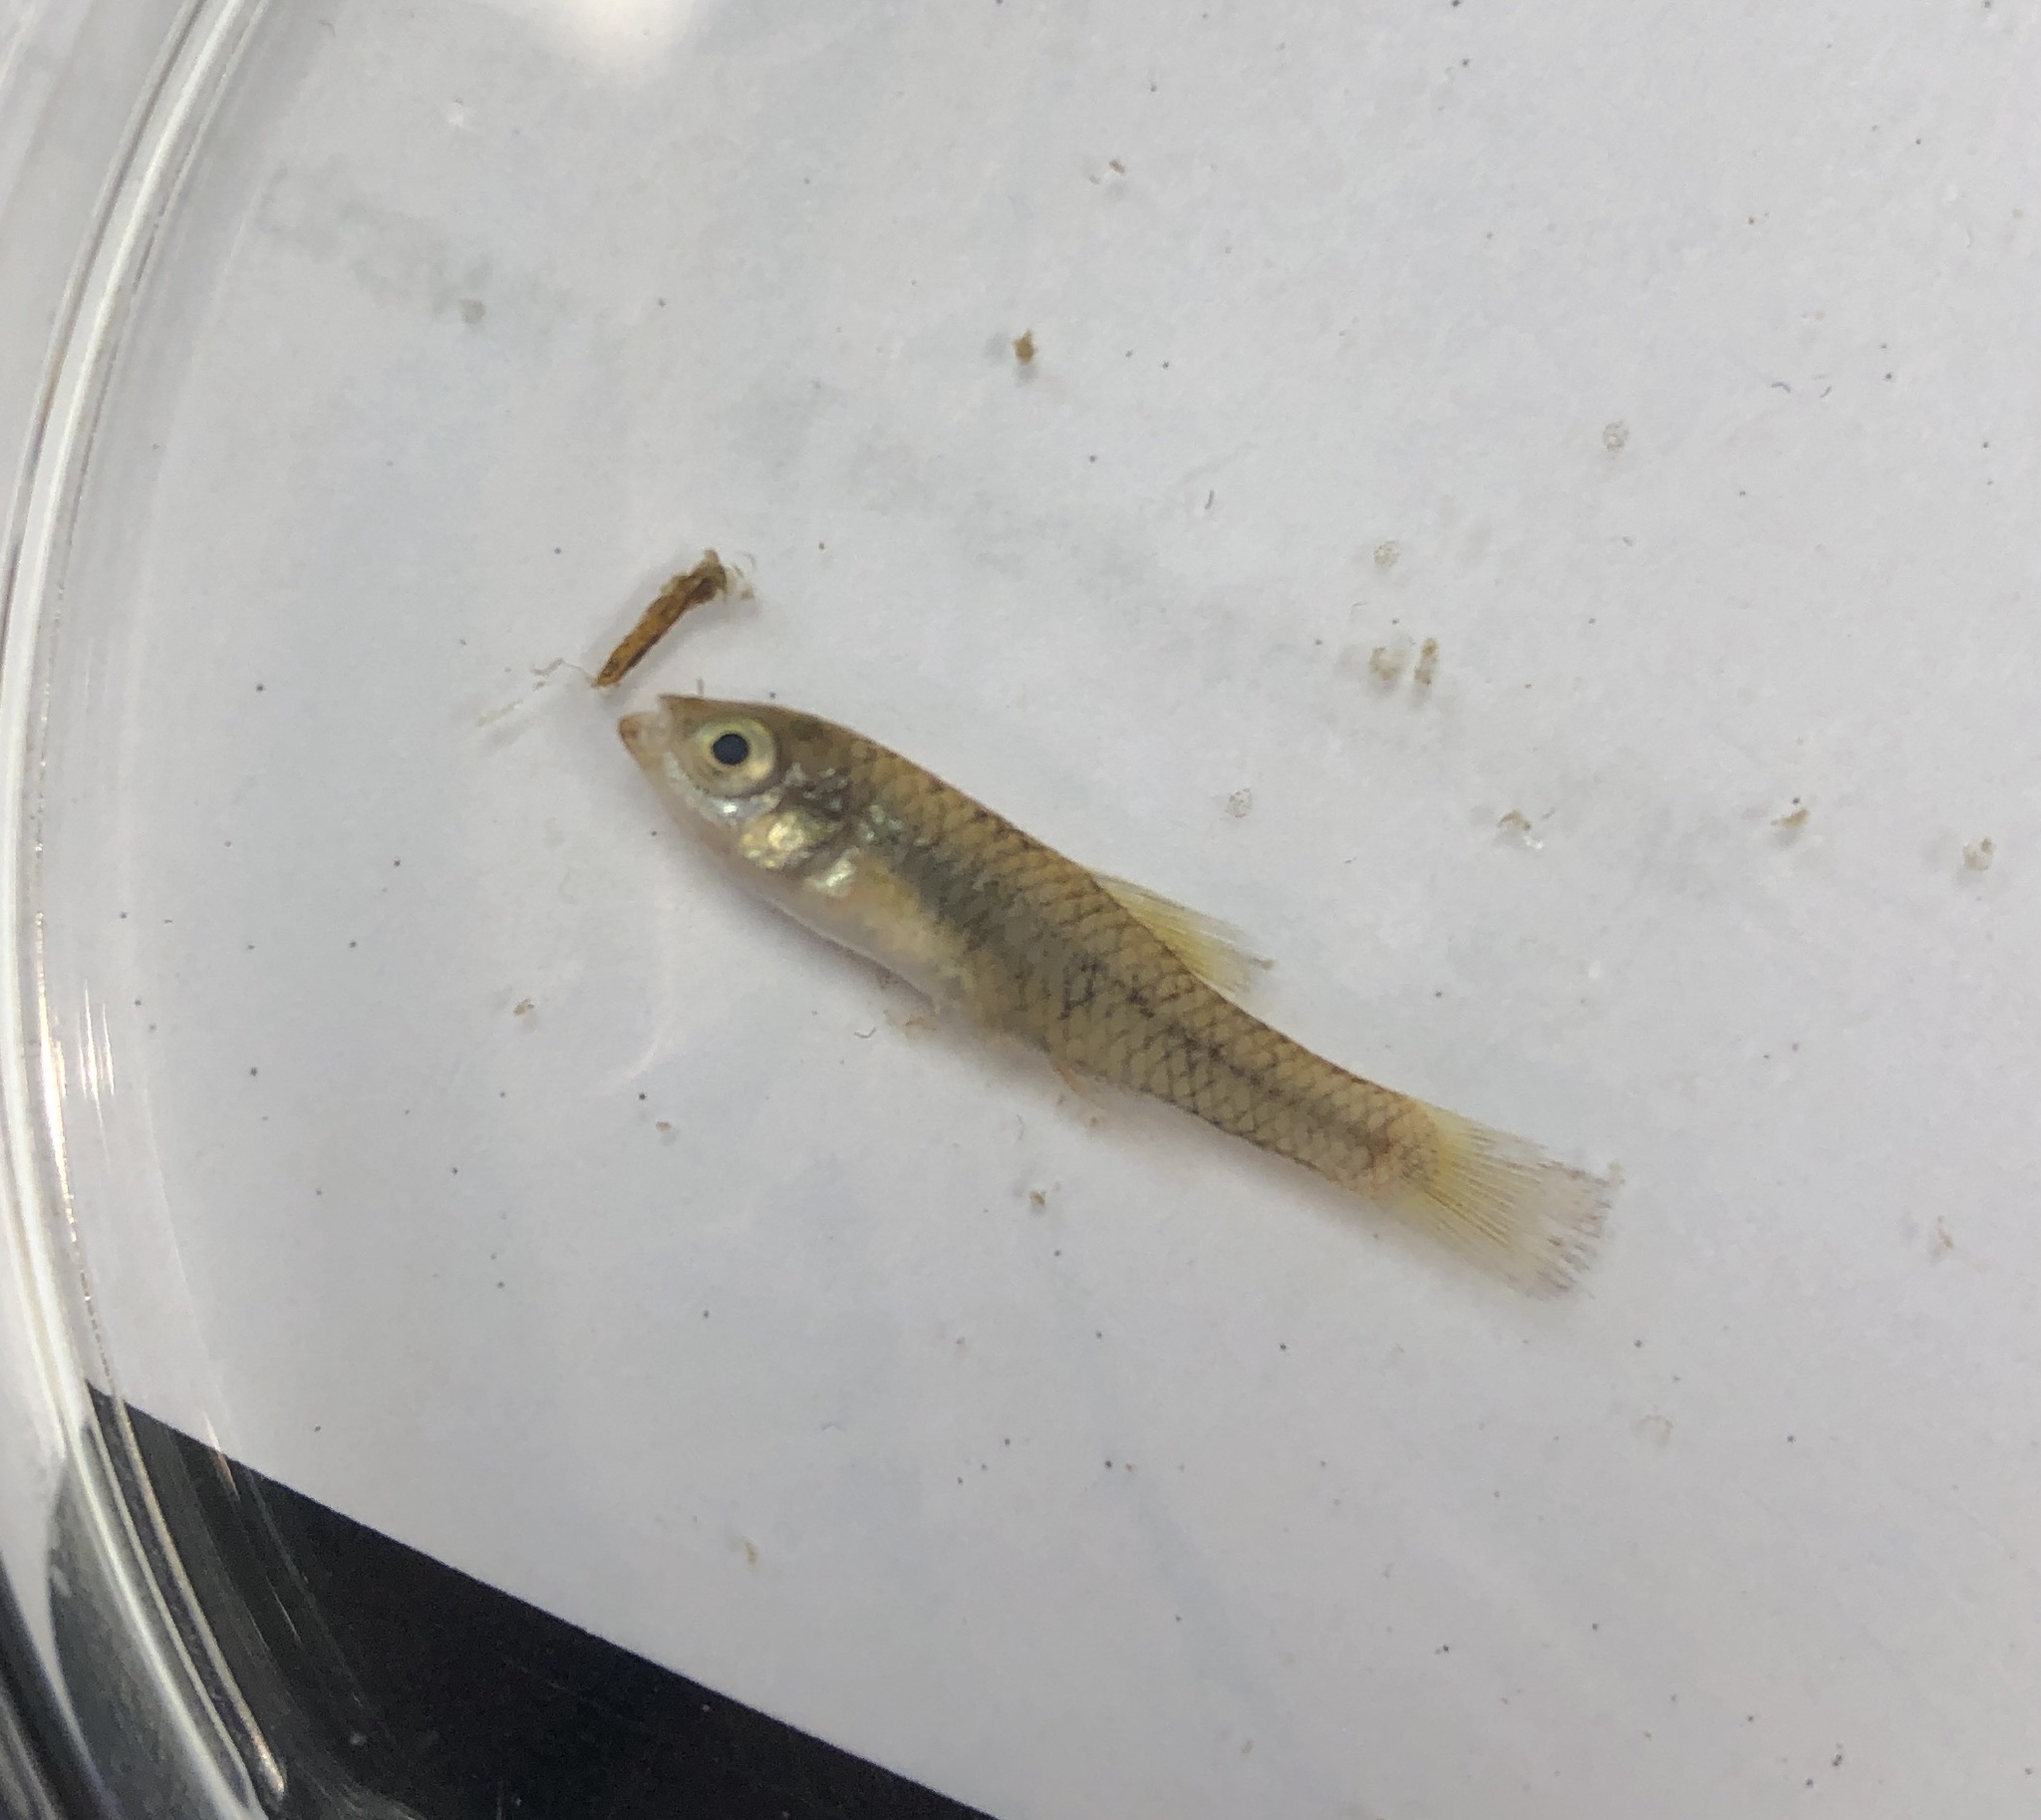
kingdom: Animalia
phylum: Chordata
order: Cyprinodontiformes
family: Fundulidae
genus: Lucania
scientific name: Lucania parva
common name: Rainwater killifish
